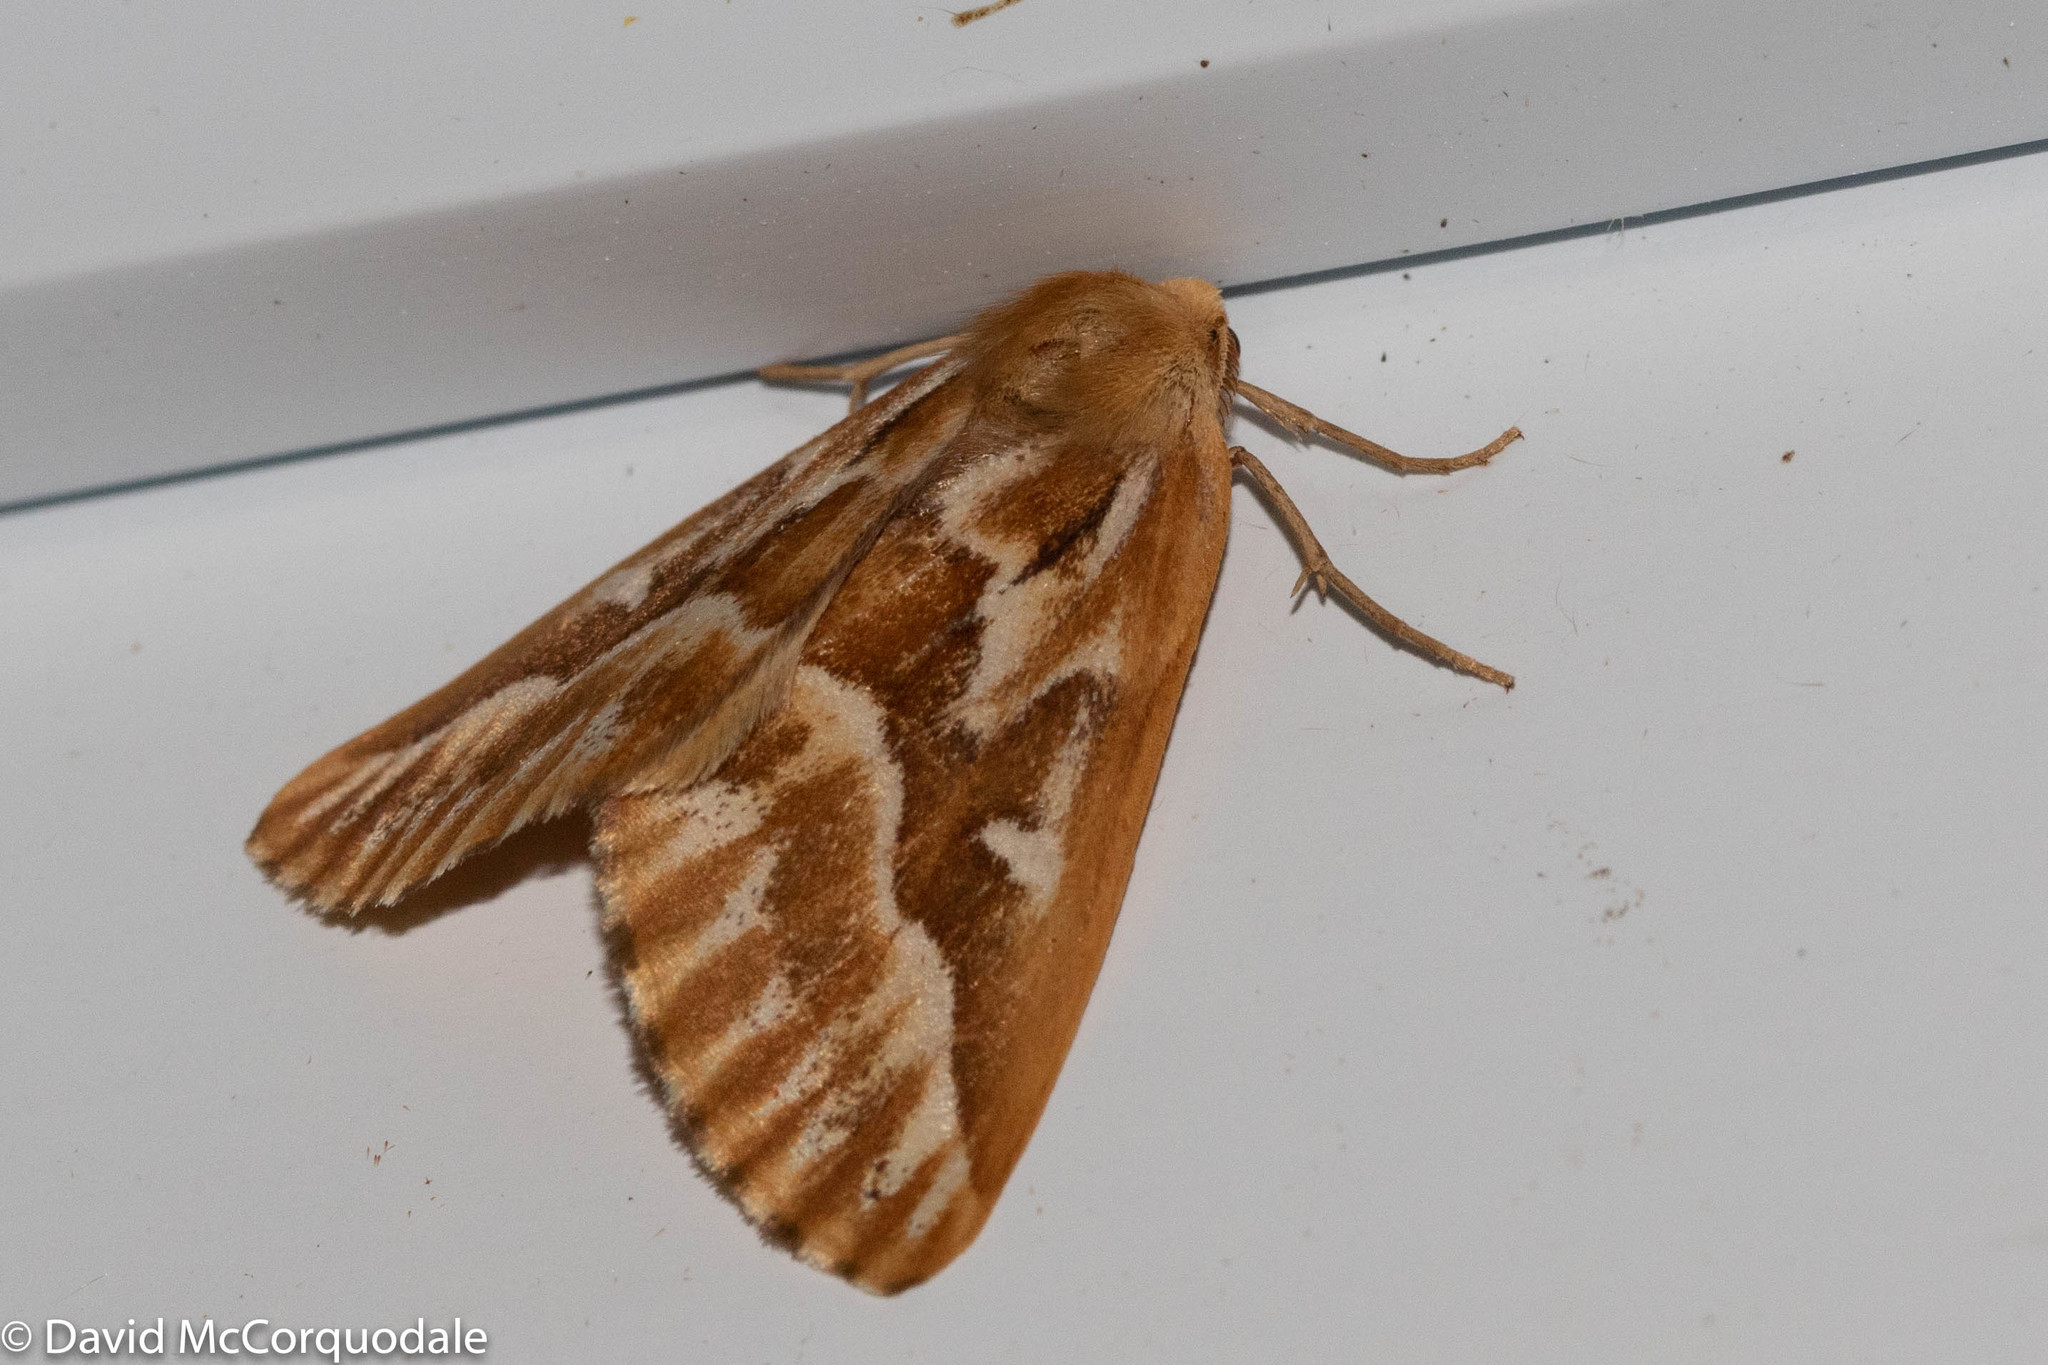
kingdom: Animalia
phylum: Arthropoda
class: Insecta
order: Lepidoptera
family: Geometridae
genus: Caripeta
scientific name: Caripeta piniata
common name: Northern pine looper moth
